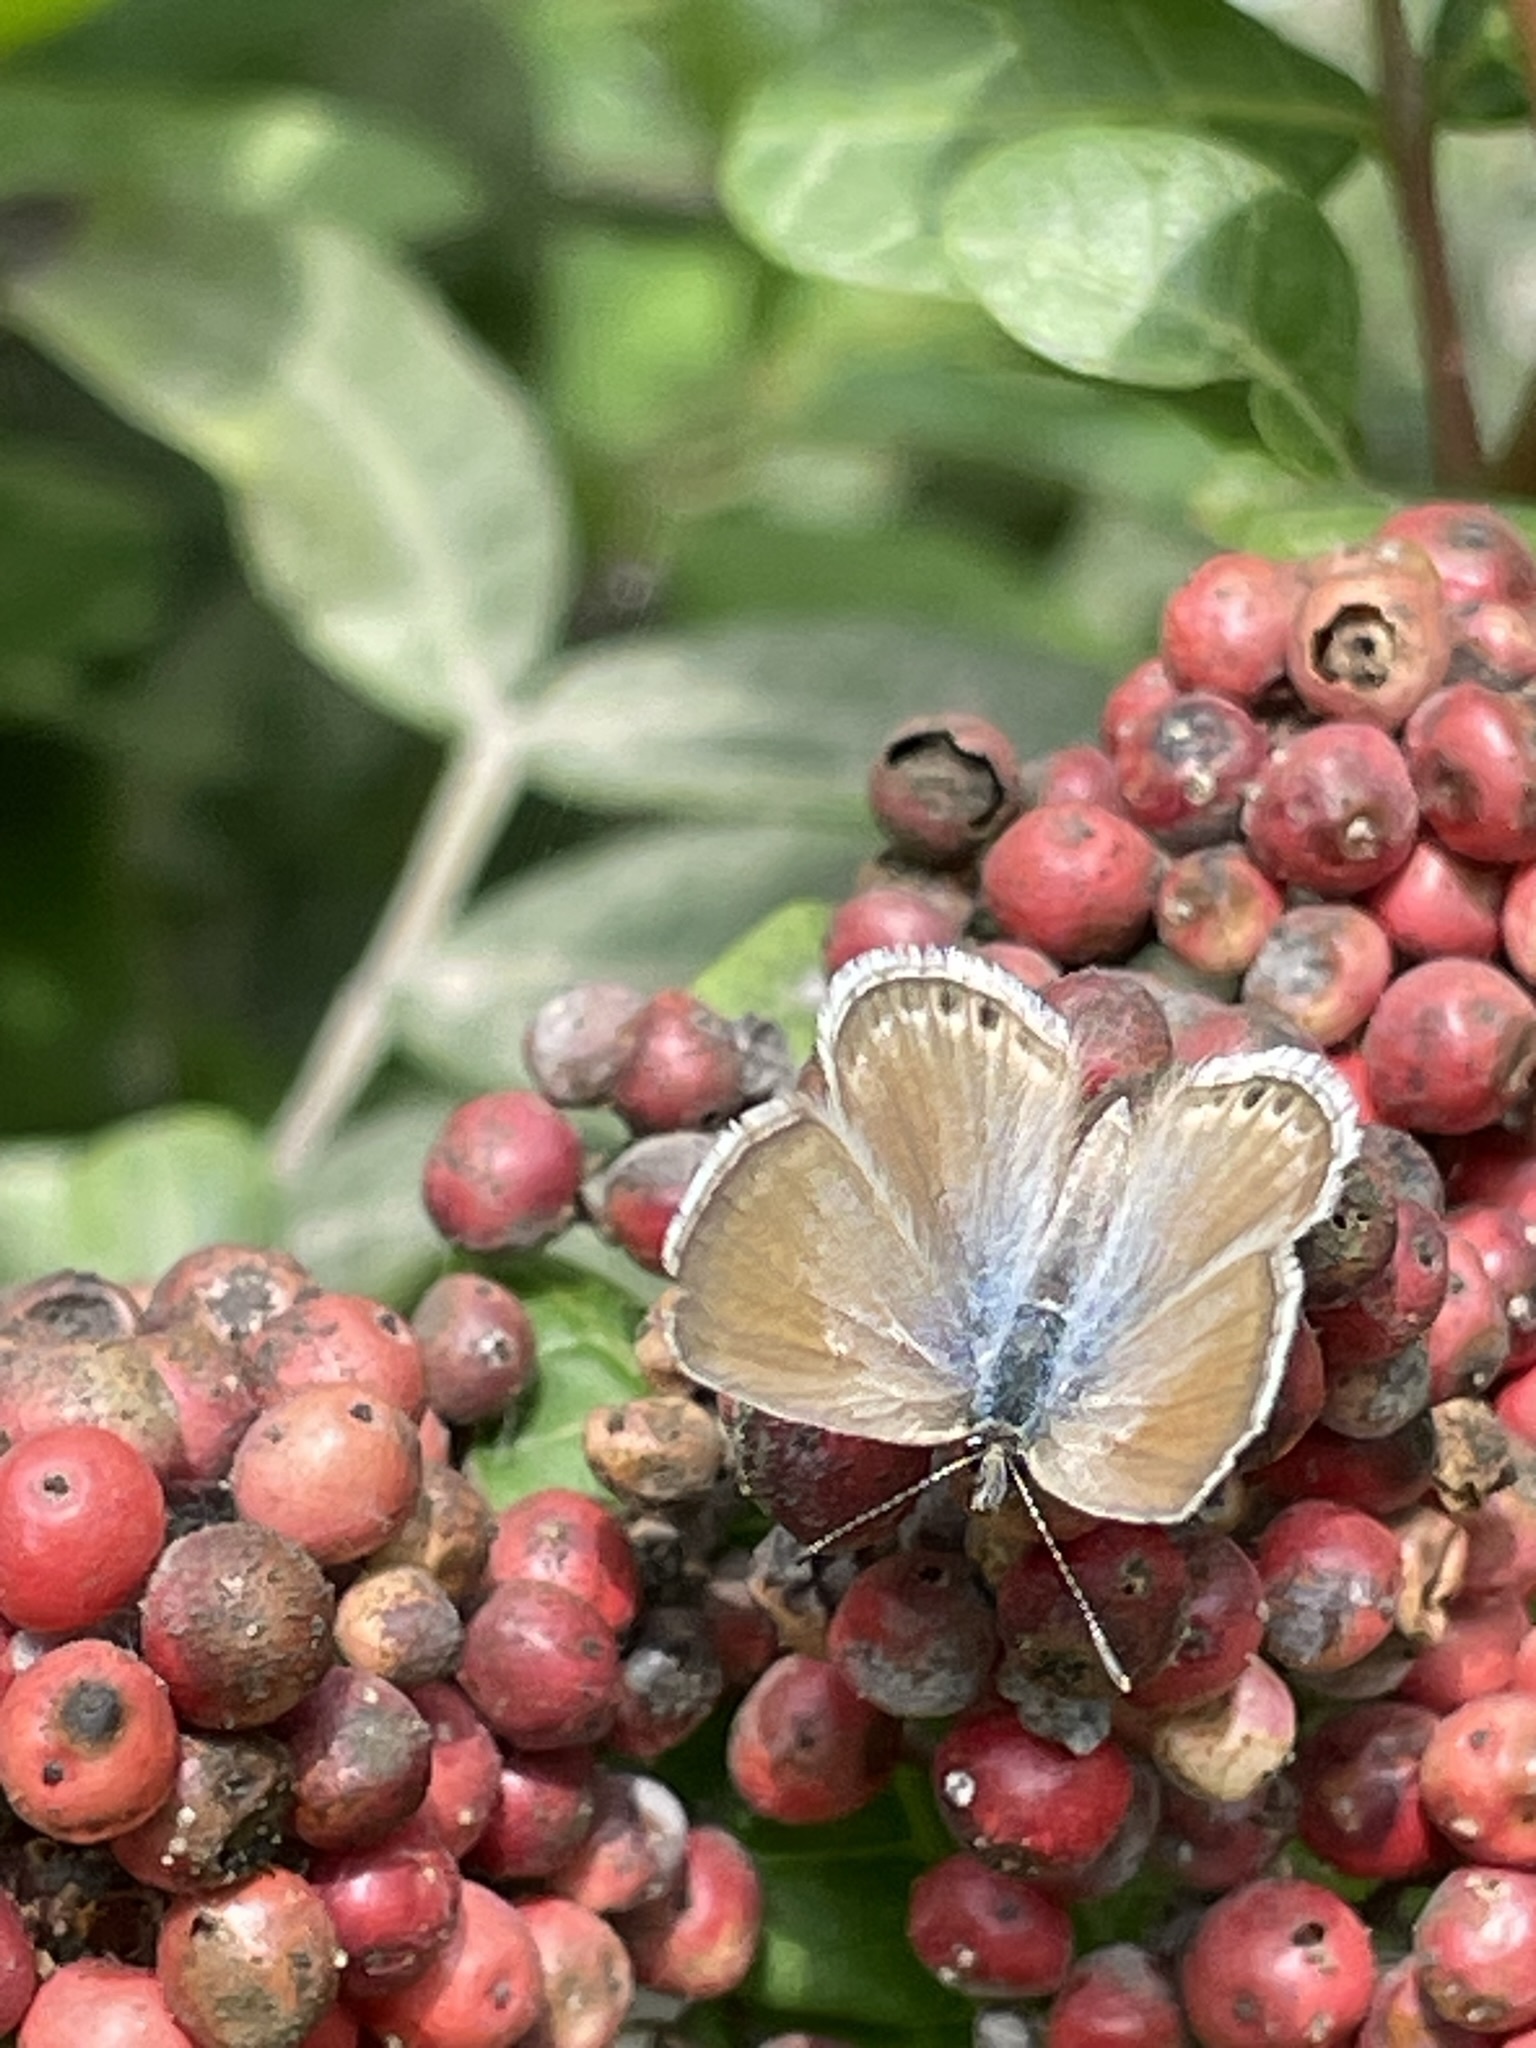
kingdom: Animalia
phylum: Arthropoda
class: Insecta
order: Lepidoptera
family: Lycaenidae
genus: Hemiargus
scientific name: Hemiargus ramon
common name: Ramon blue
